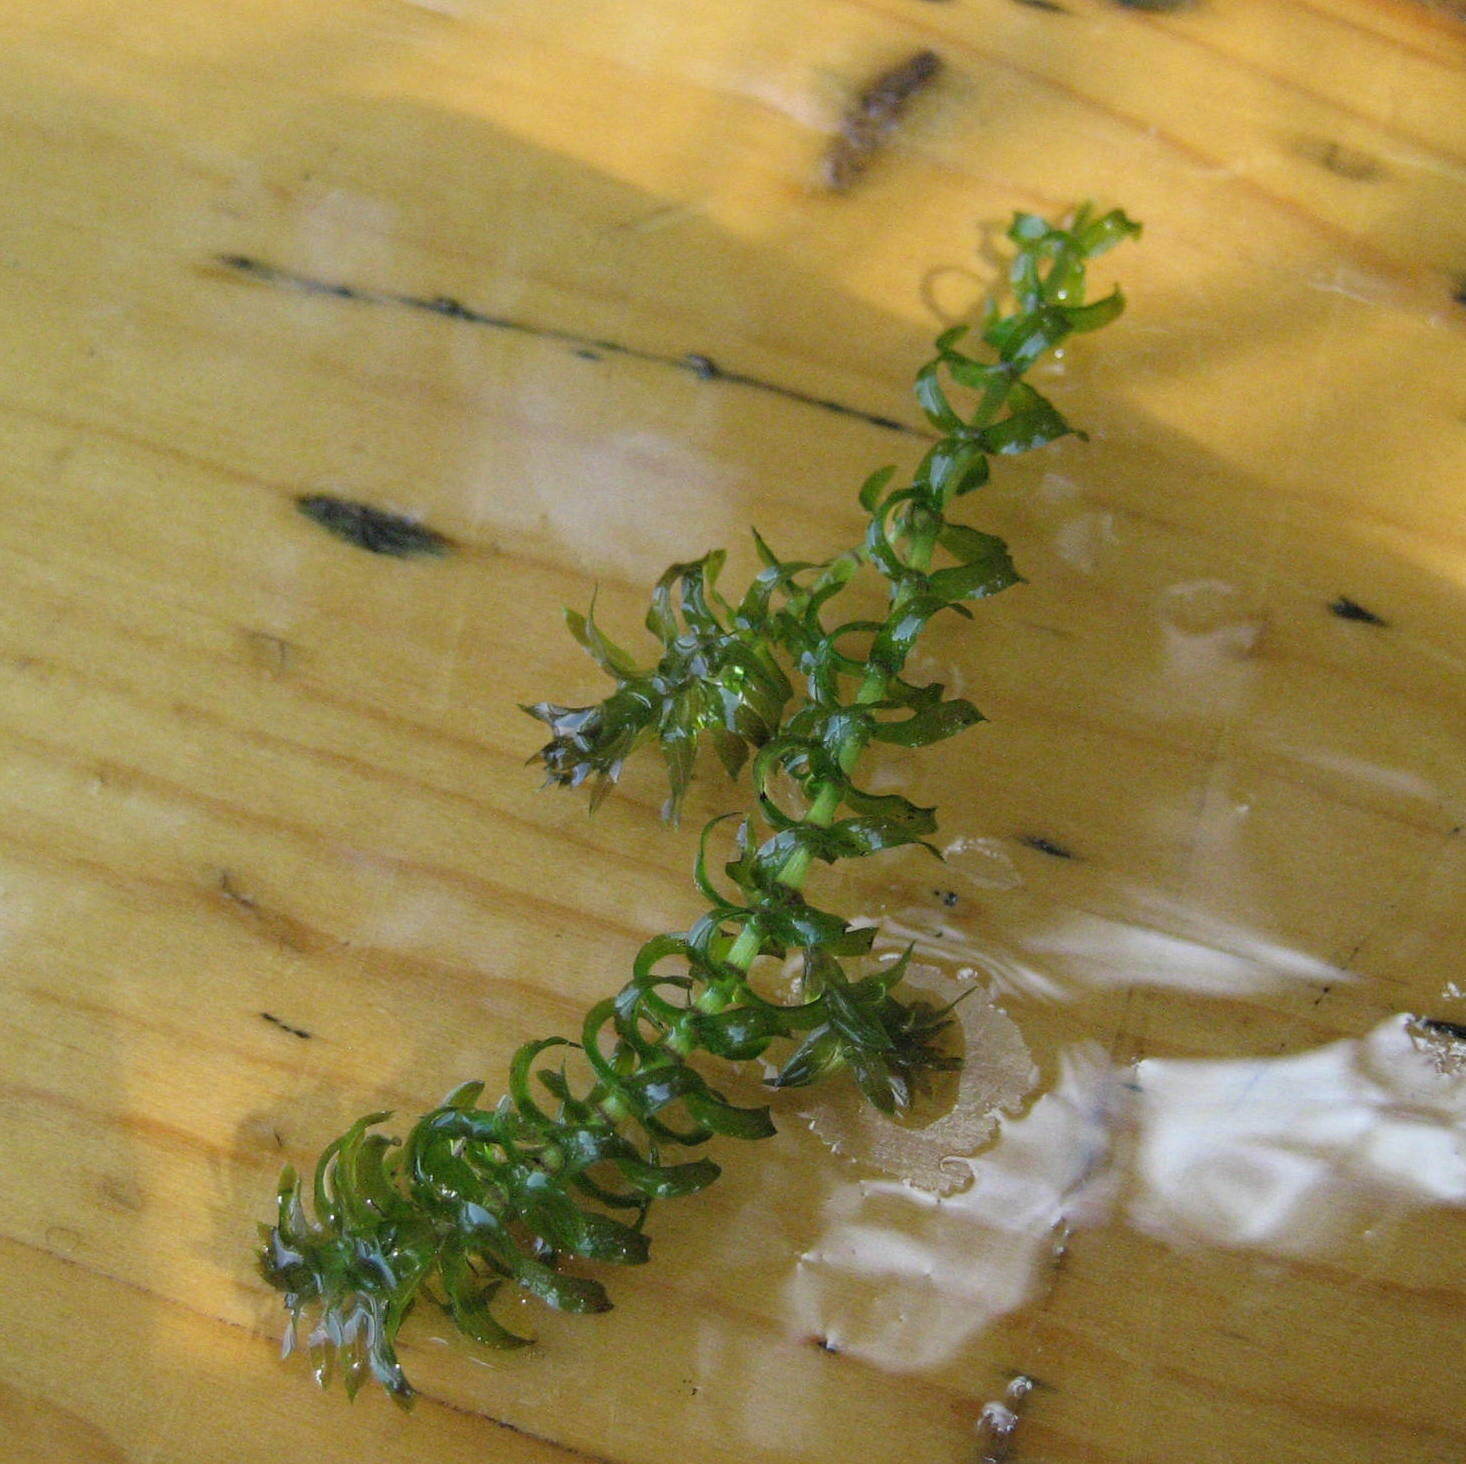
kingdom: Plantae
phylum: Tracheophyta
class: Liliopsida
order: Alismatales
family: Hydrocharitaceae
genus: Elodea
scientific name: Elodea canadensis
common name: Canadian waterweed
